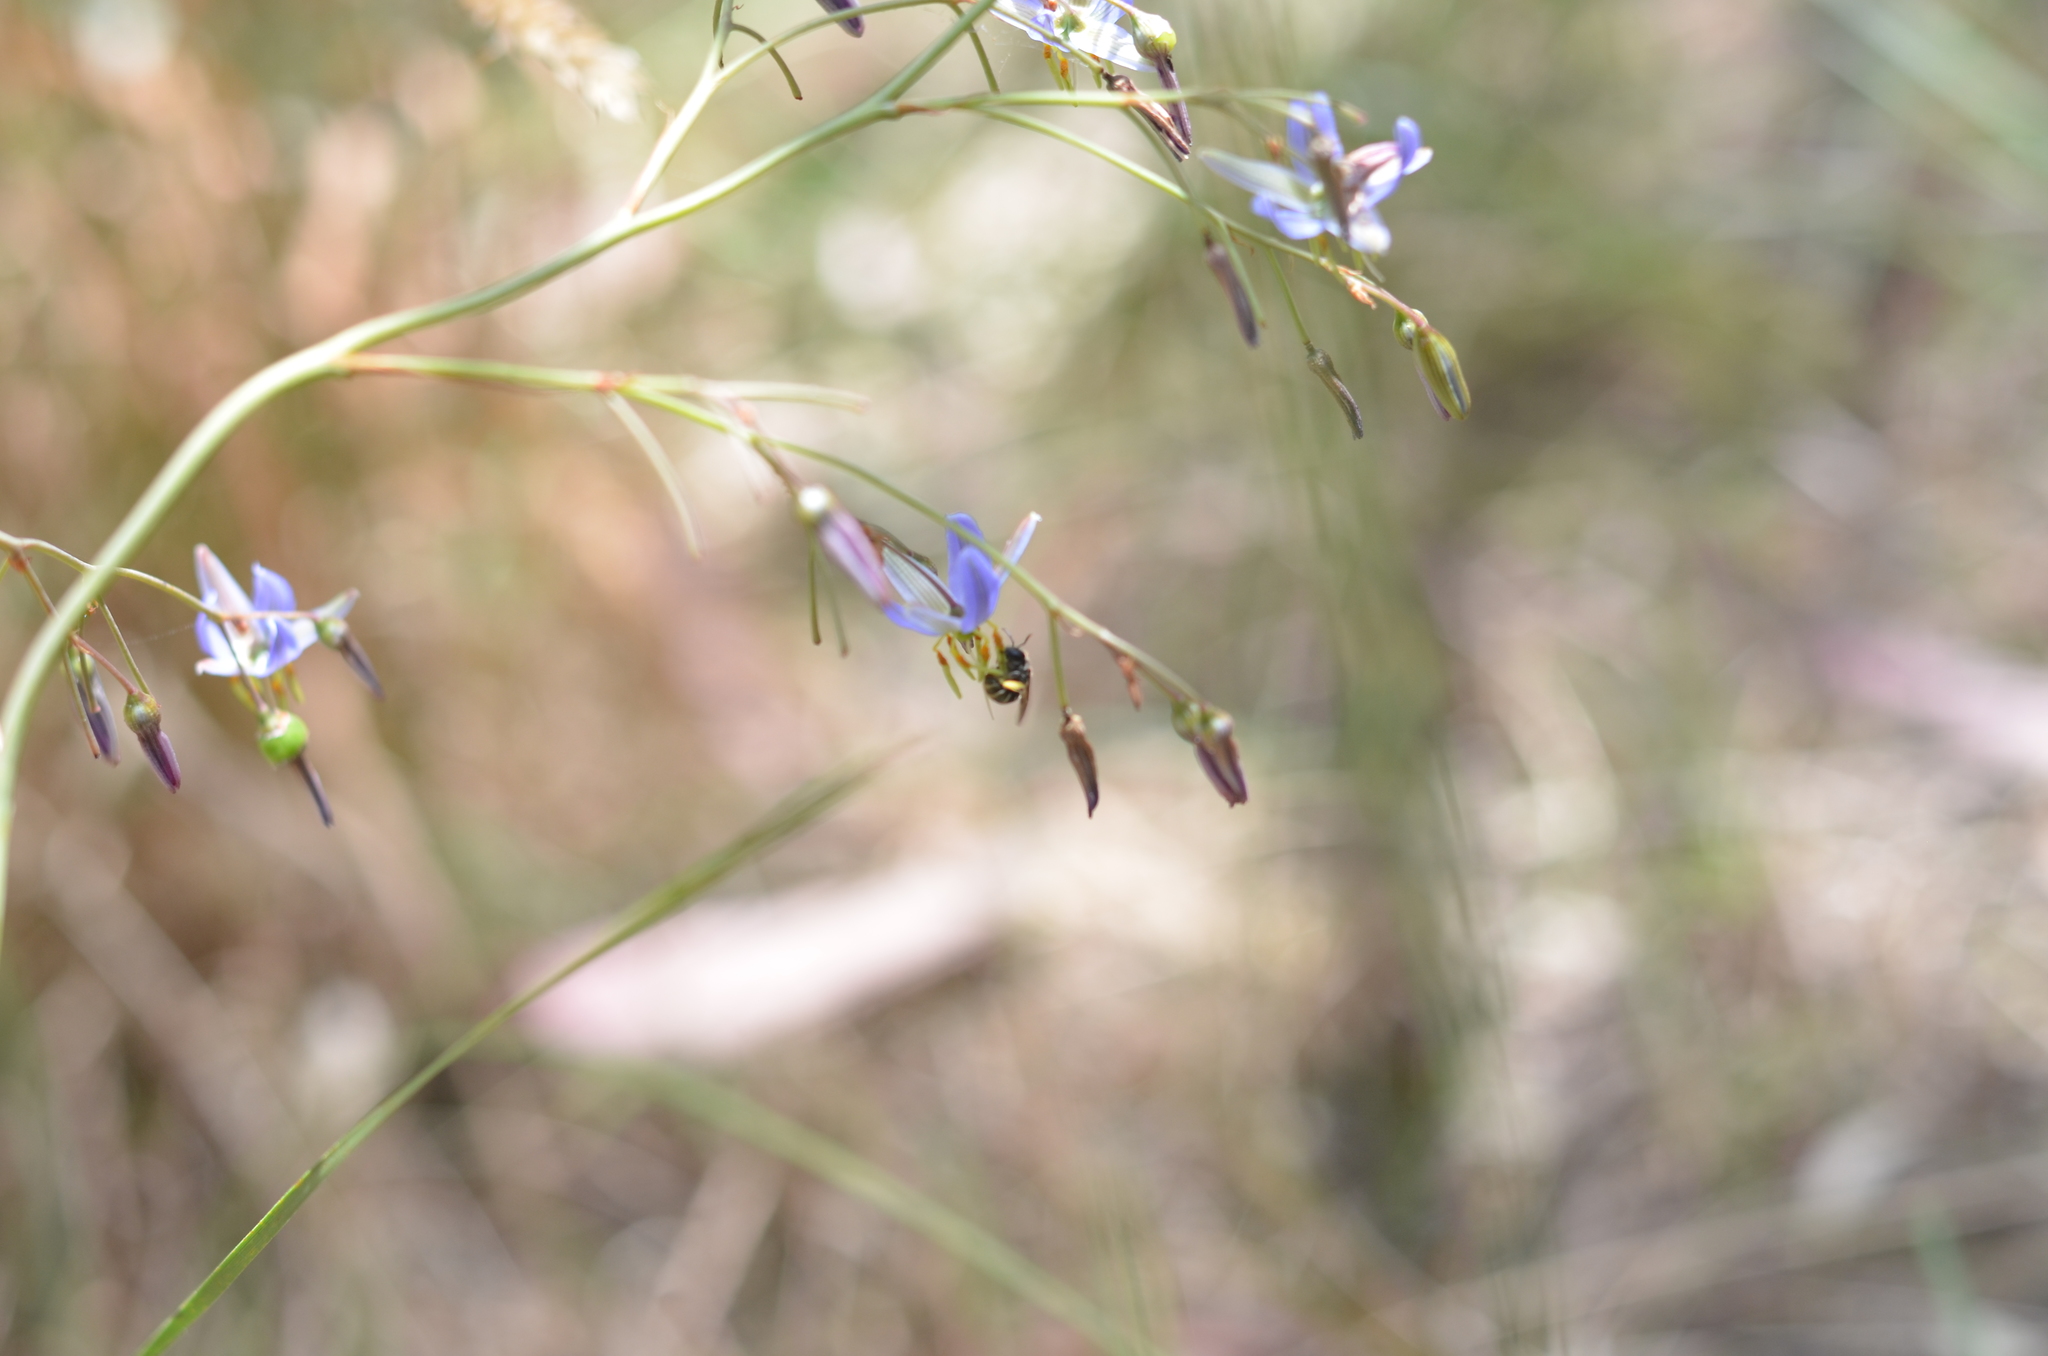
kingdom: Plantae
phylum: Tracheophyta
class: Liliopsida
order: Asparagales
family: Asphodelaceae
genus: Dianella
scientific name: Dianella amoena
